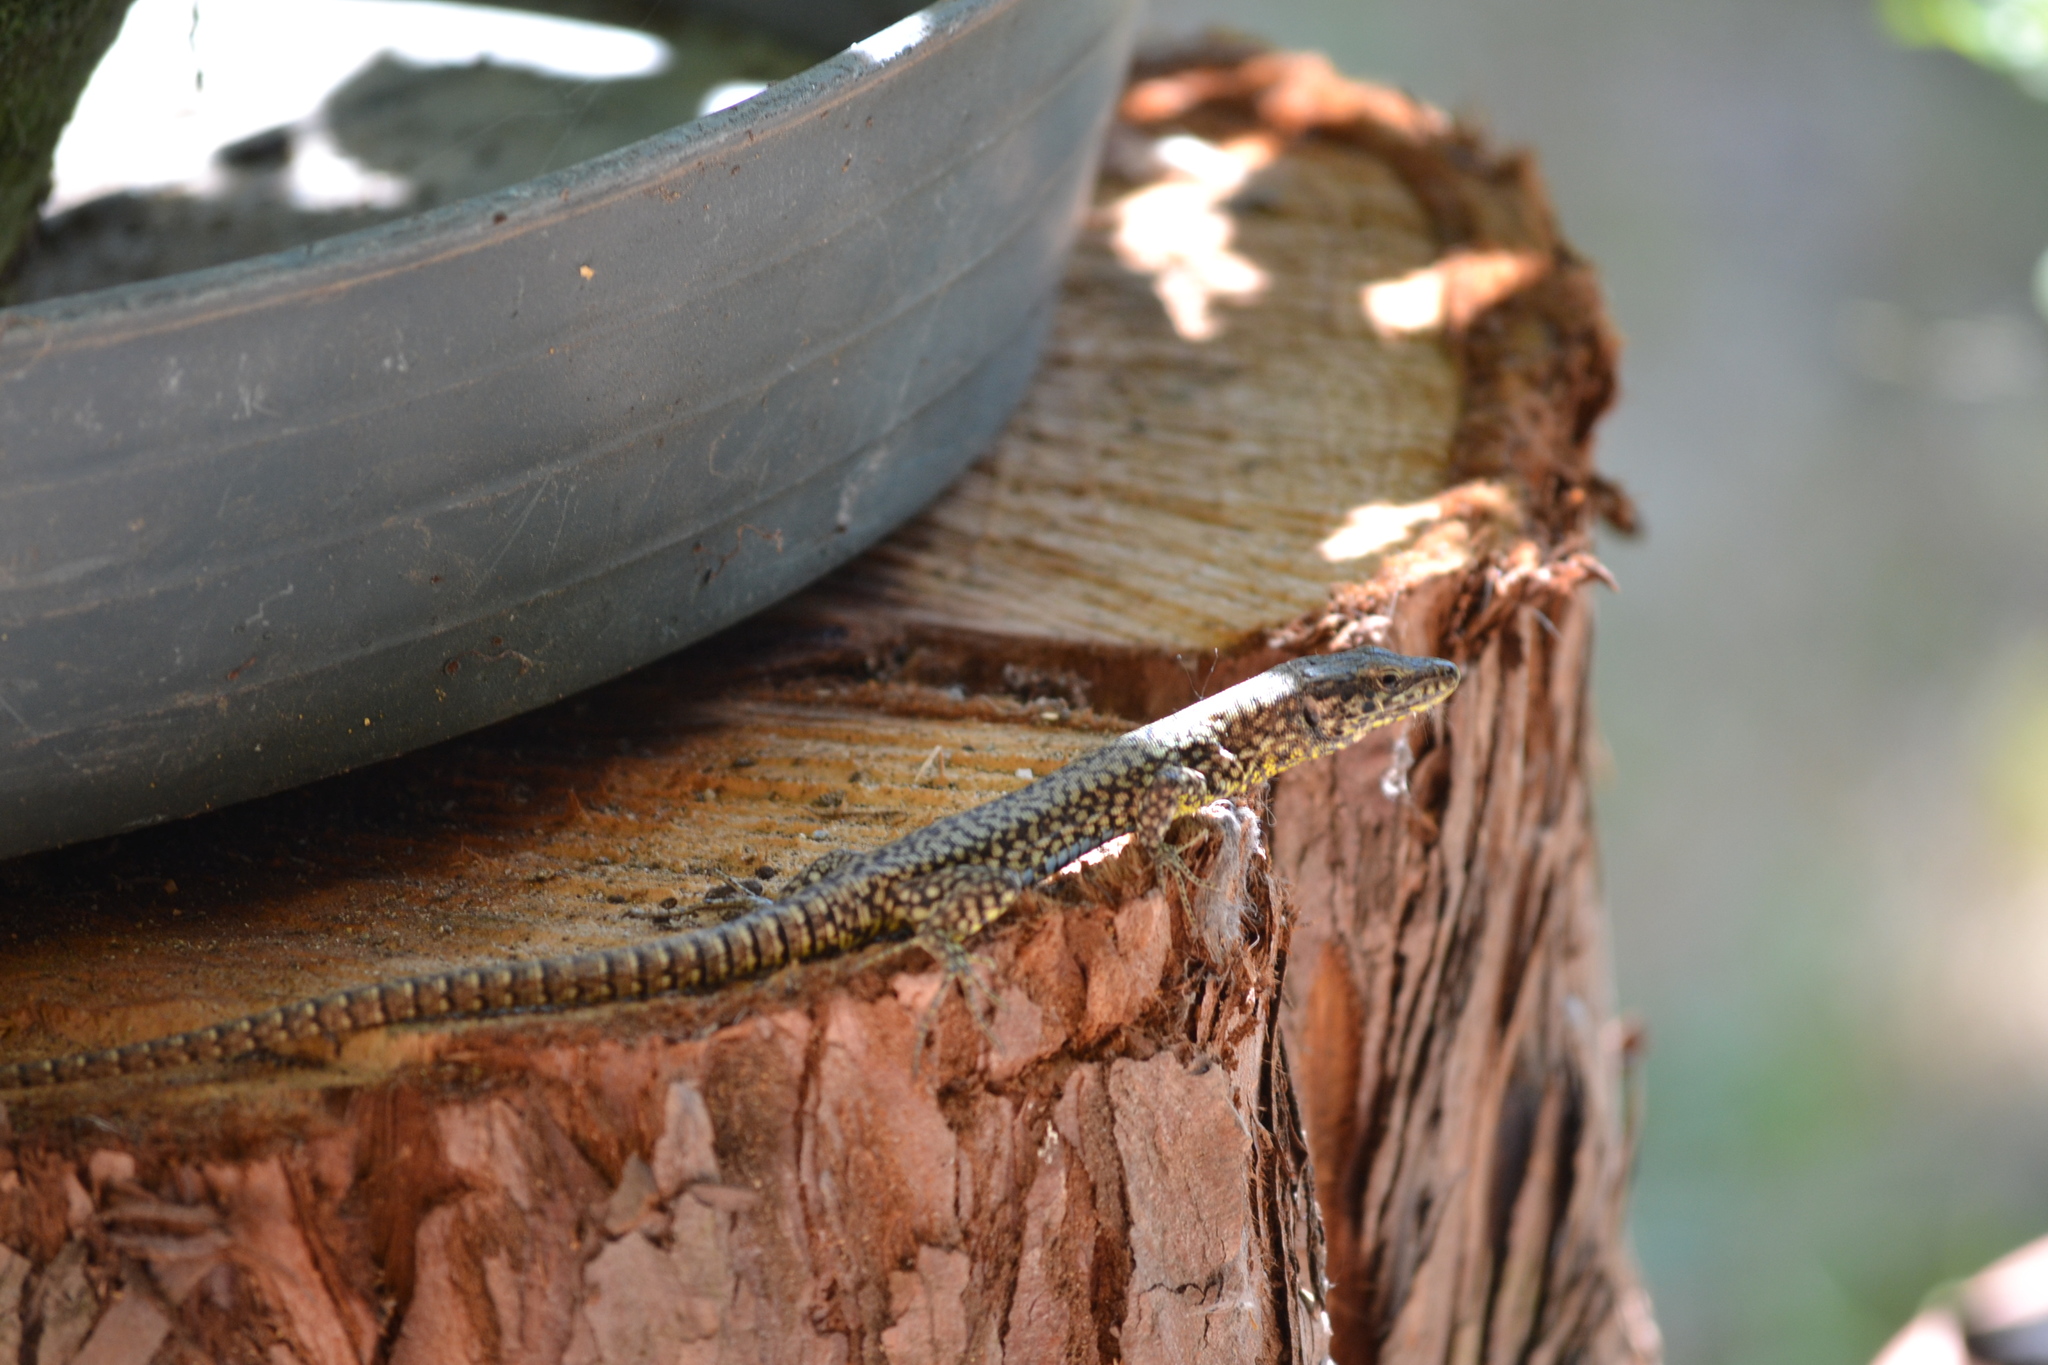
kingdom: Animalia
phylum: Chordata
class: Squamata
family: Lacertidae
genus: Podarcis
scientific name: Podarcis muralis
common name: Common wall lizard
